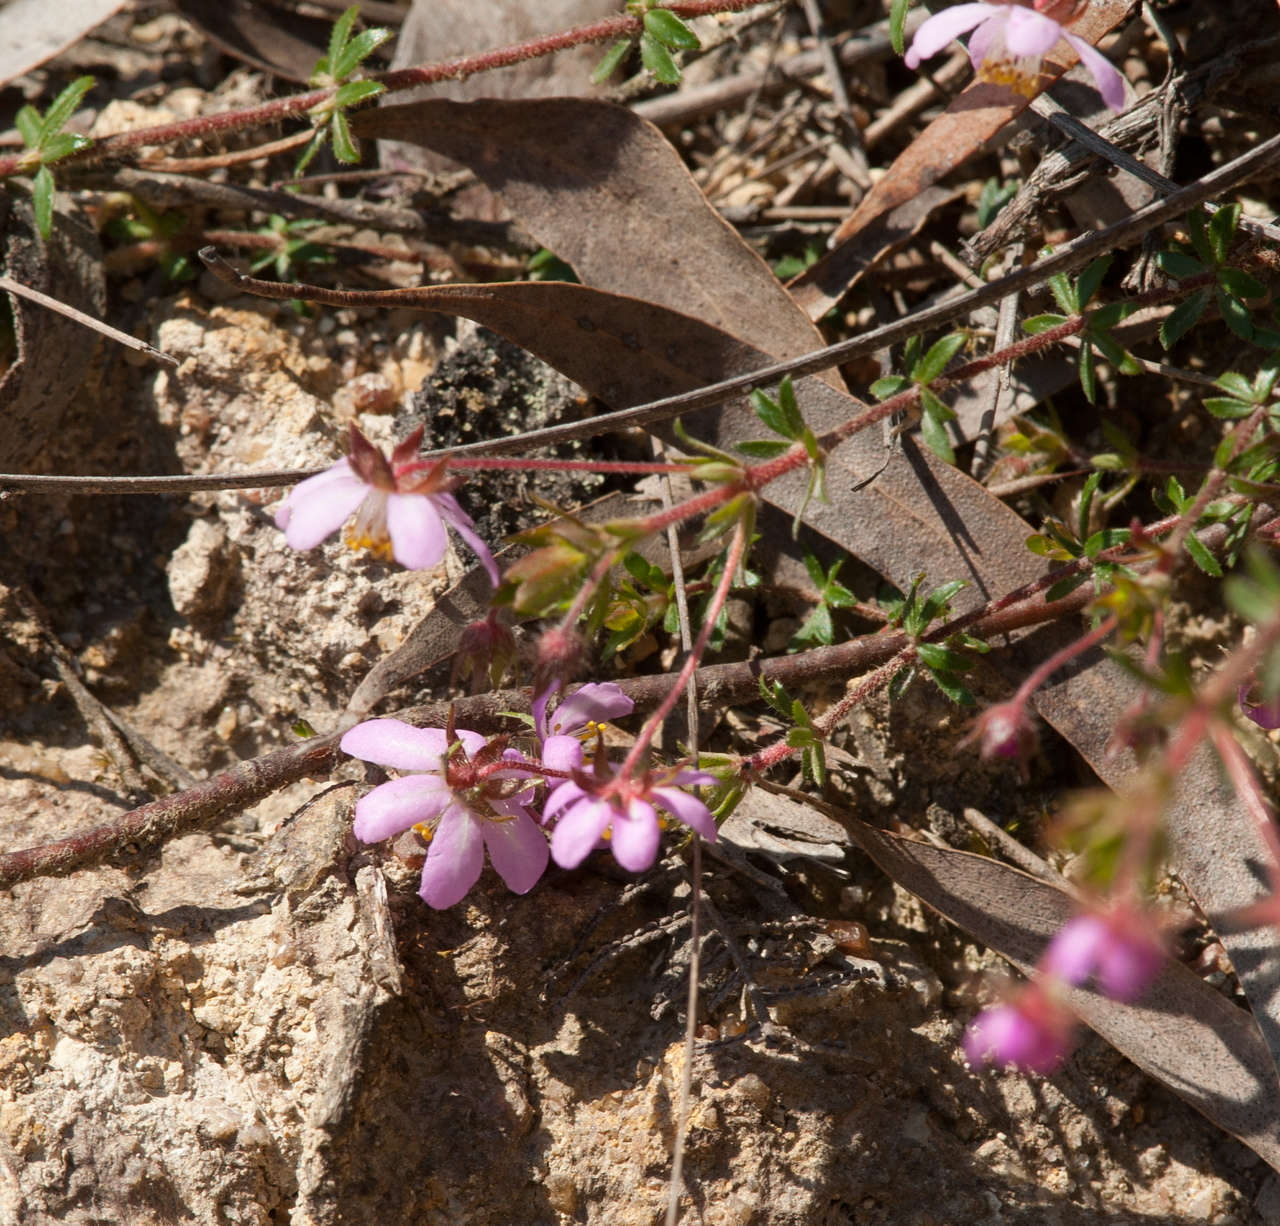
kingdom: Plantae
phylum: Tracheophyta
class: Magnoliopsida
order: Oxalidales
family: Cunoniaceae
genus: Bauera
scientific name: Bauera rubioides
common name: River-rose
